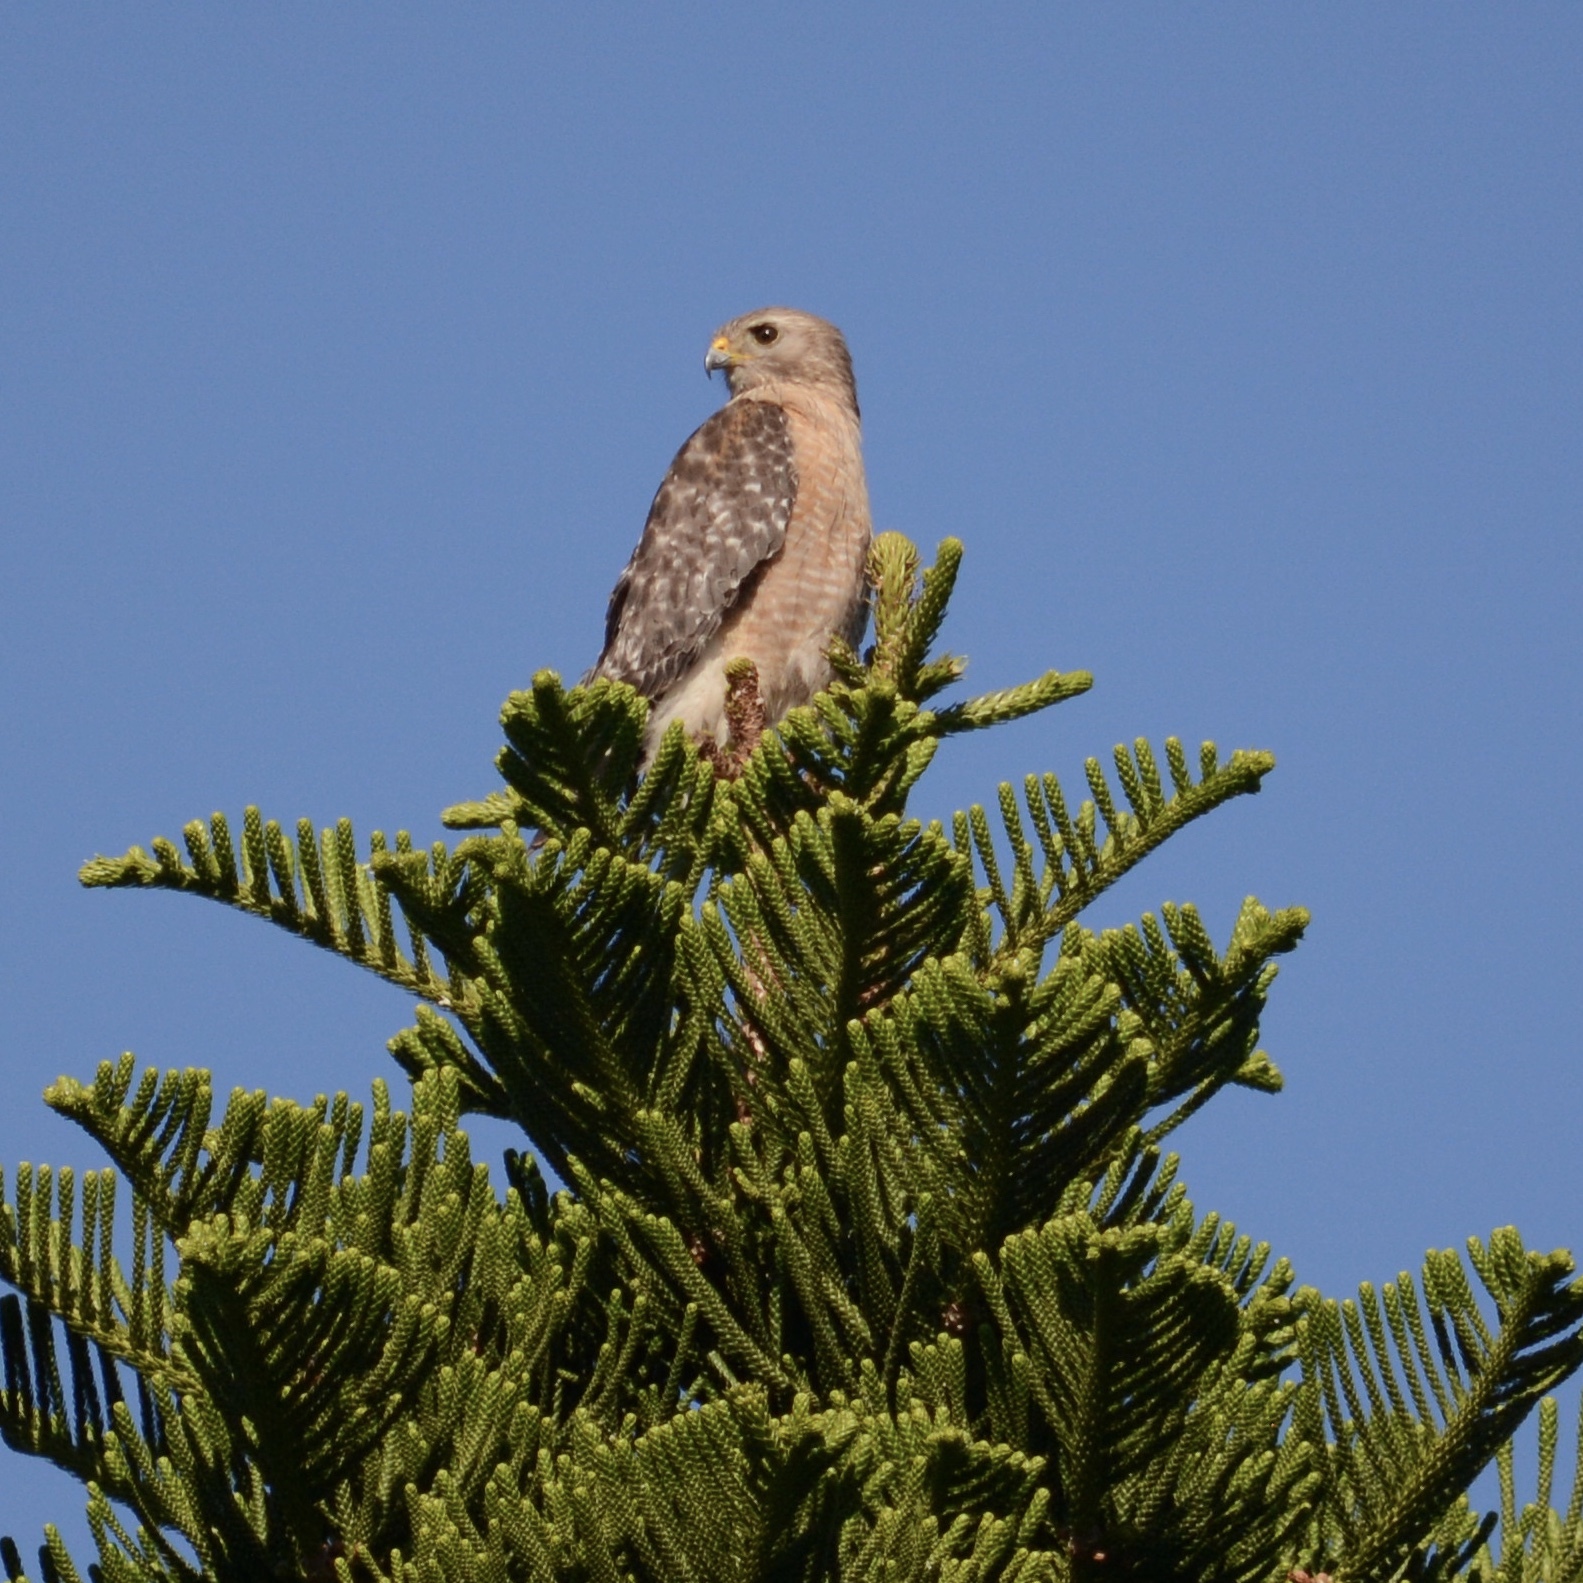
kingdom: Animalia
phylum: Chordata
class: Aves
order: Accipitriformes
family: Accipitridae
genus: Buteo
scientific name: Buteo lineatus
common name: Red-shouldered hawk
